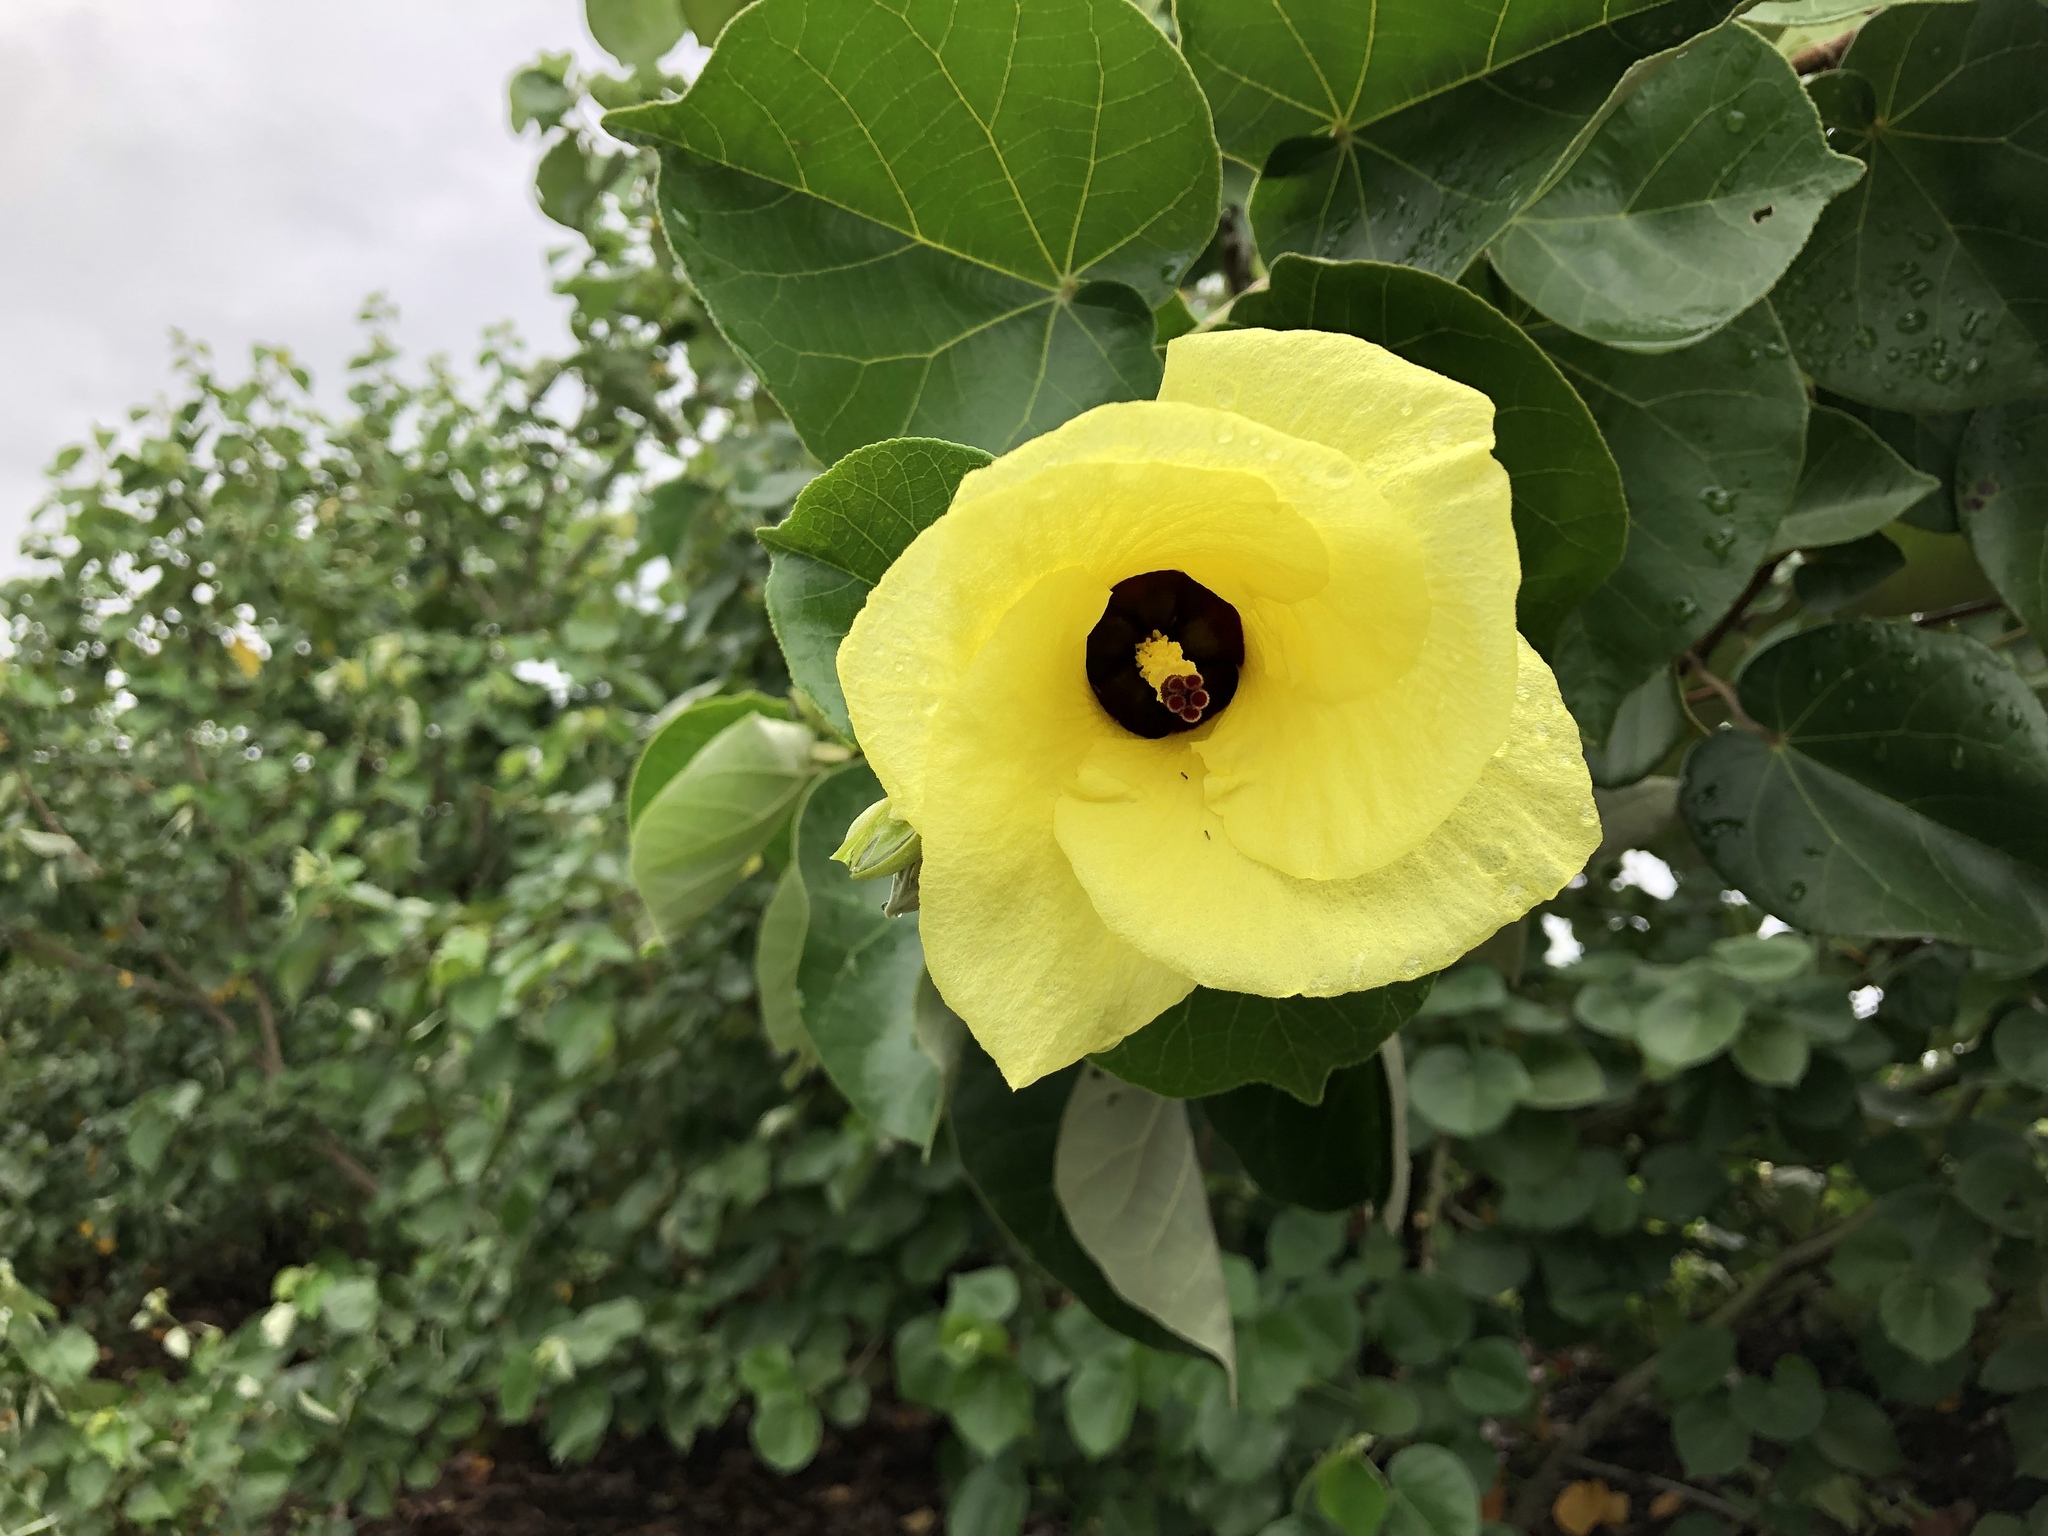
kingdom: Plantae
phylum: Tracheophyta
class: Magnoliopsida
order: Malvales
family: Malvaceae
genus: Talipariti
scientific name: Talipariti tiliaceum
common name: Sea hibiscus
